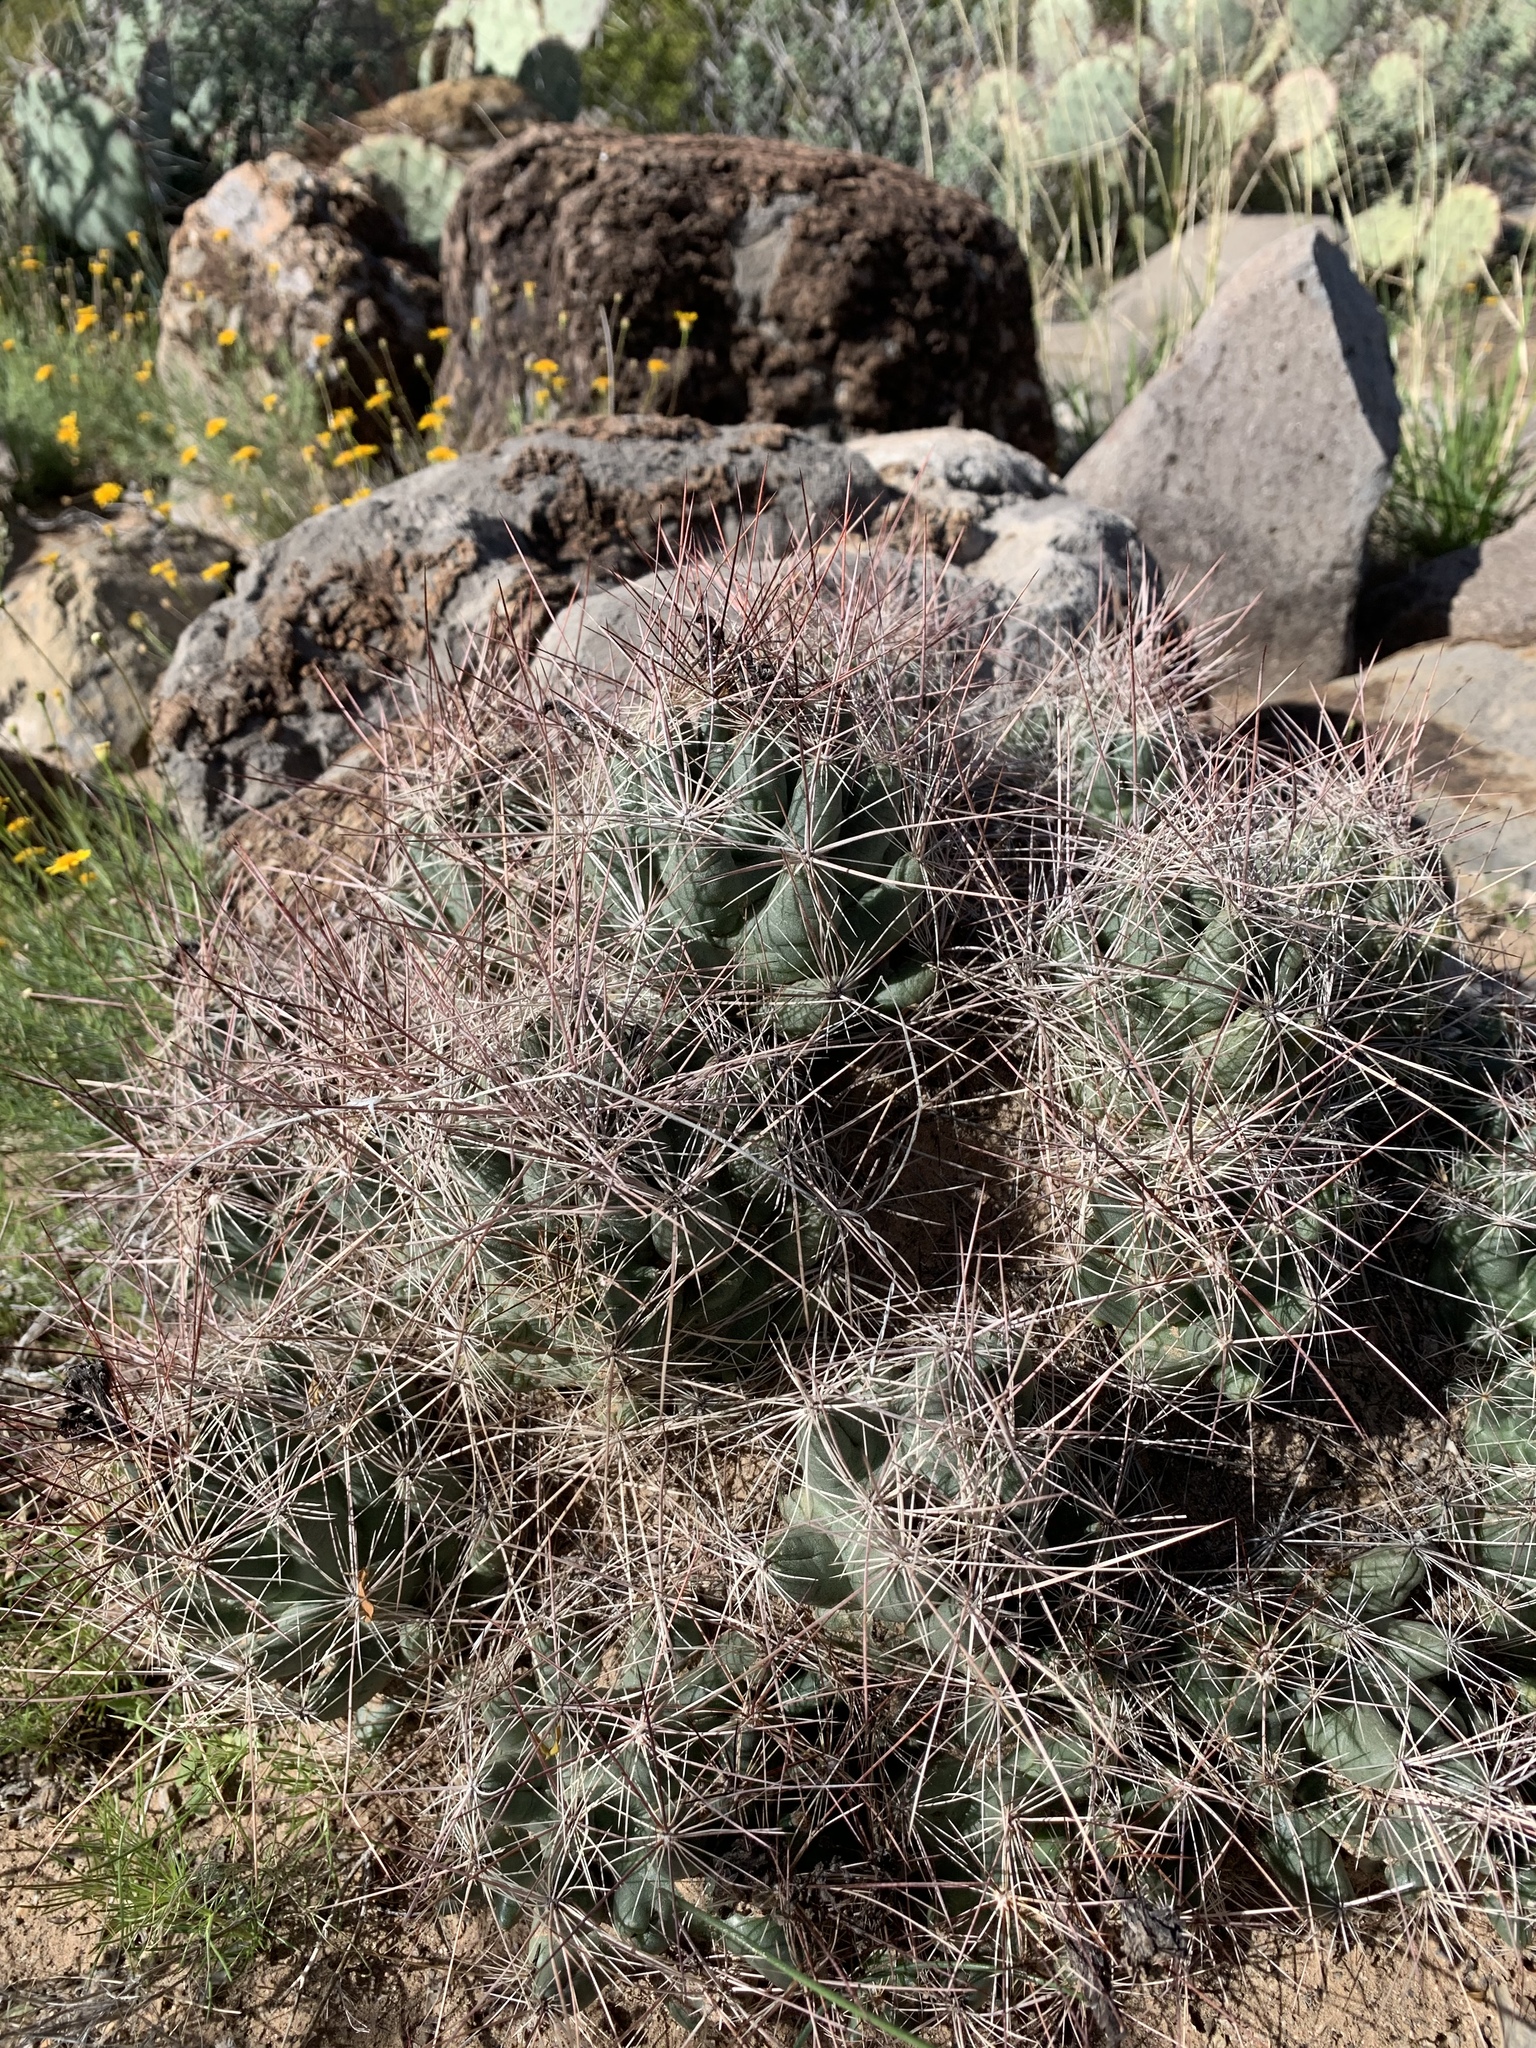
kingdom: Plantae
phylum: Tracheophyta
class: Magnoliopsida
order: Caryophyllales
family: Cactaceae
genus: Coryphantha
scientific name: Coryphantha macromeris
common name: Nipple beehive cactus
